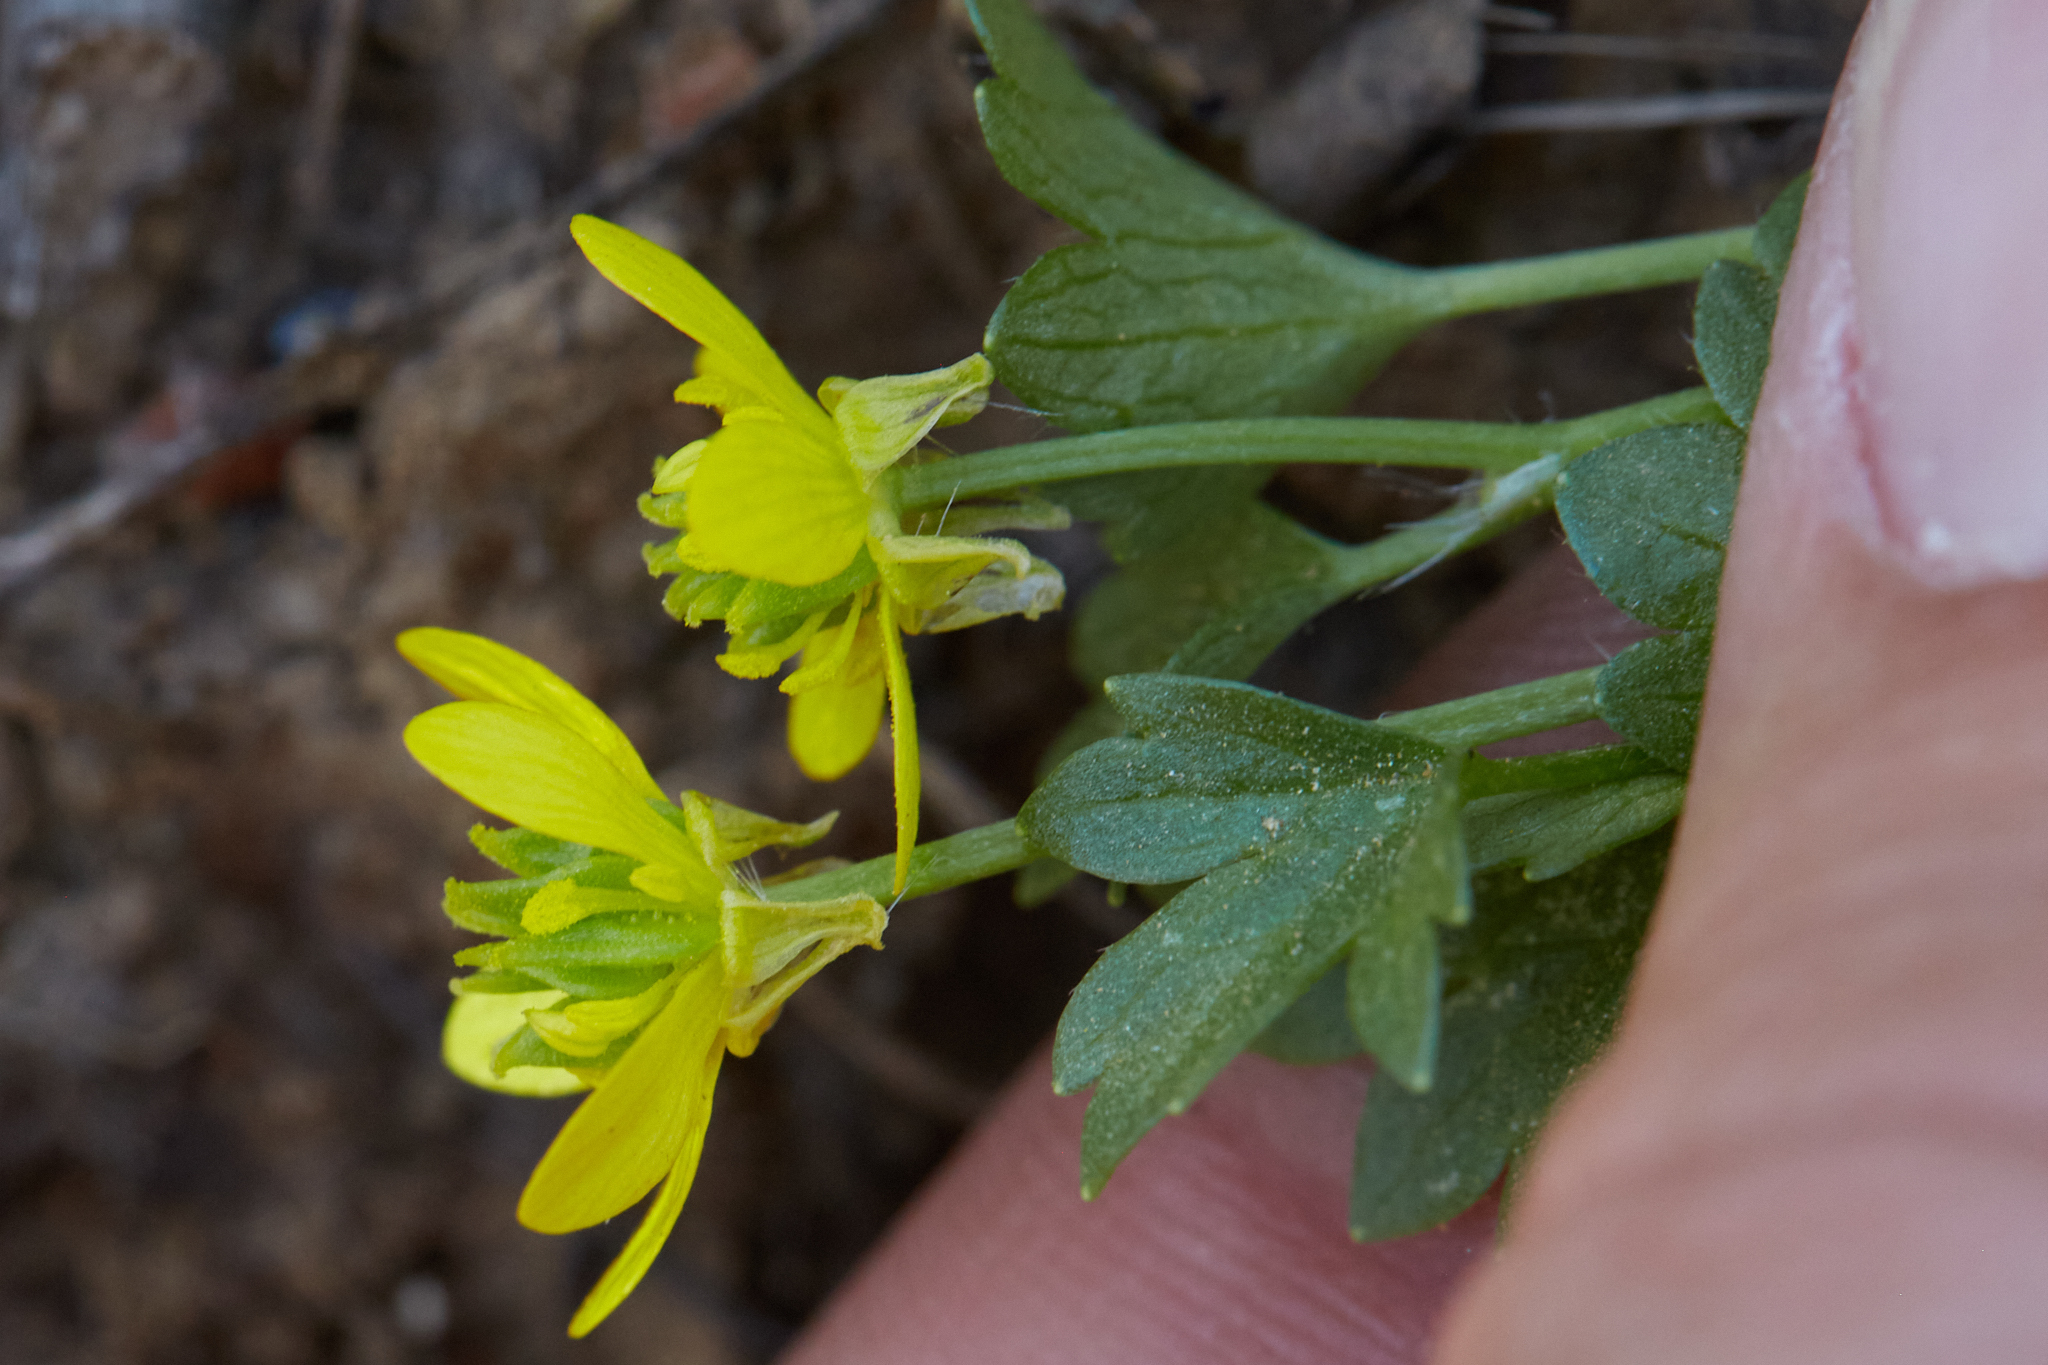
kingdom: Plantae
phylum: Tracheophyta
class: Magnoliopsida
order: Ranunculales
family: Ranunculaceae
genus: Ranunculus
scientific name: Ranunculus muricatus
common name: Rough-fruited buttercup
